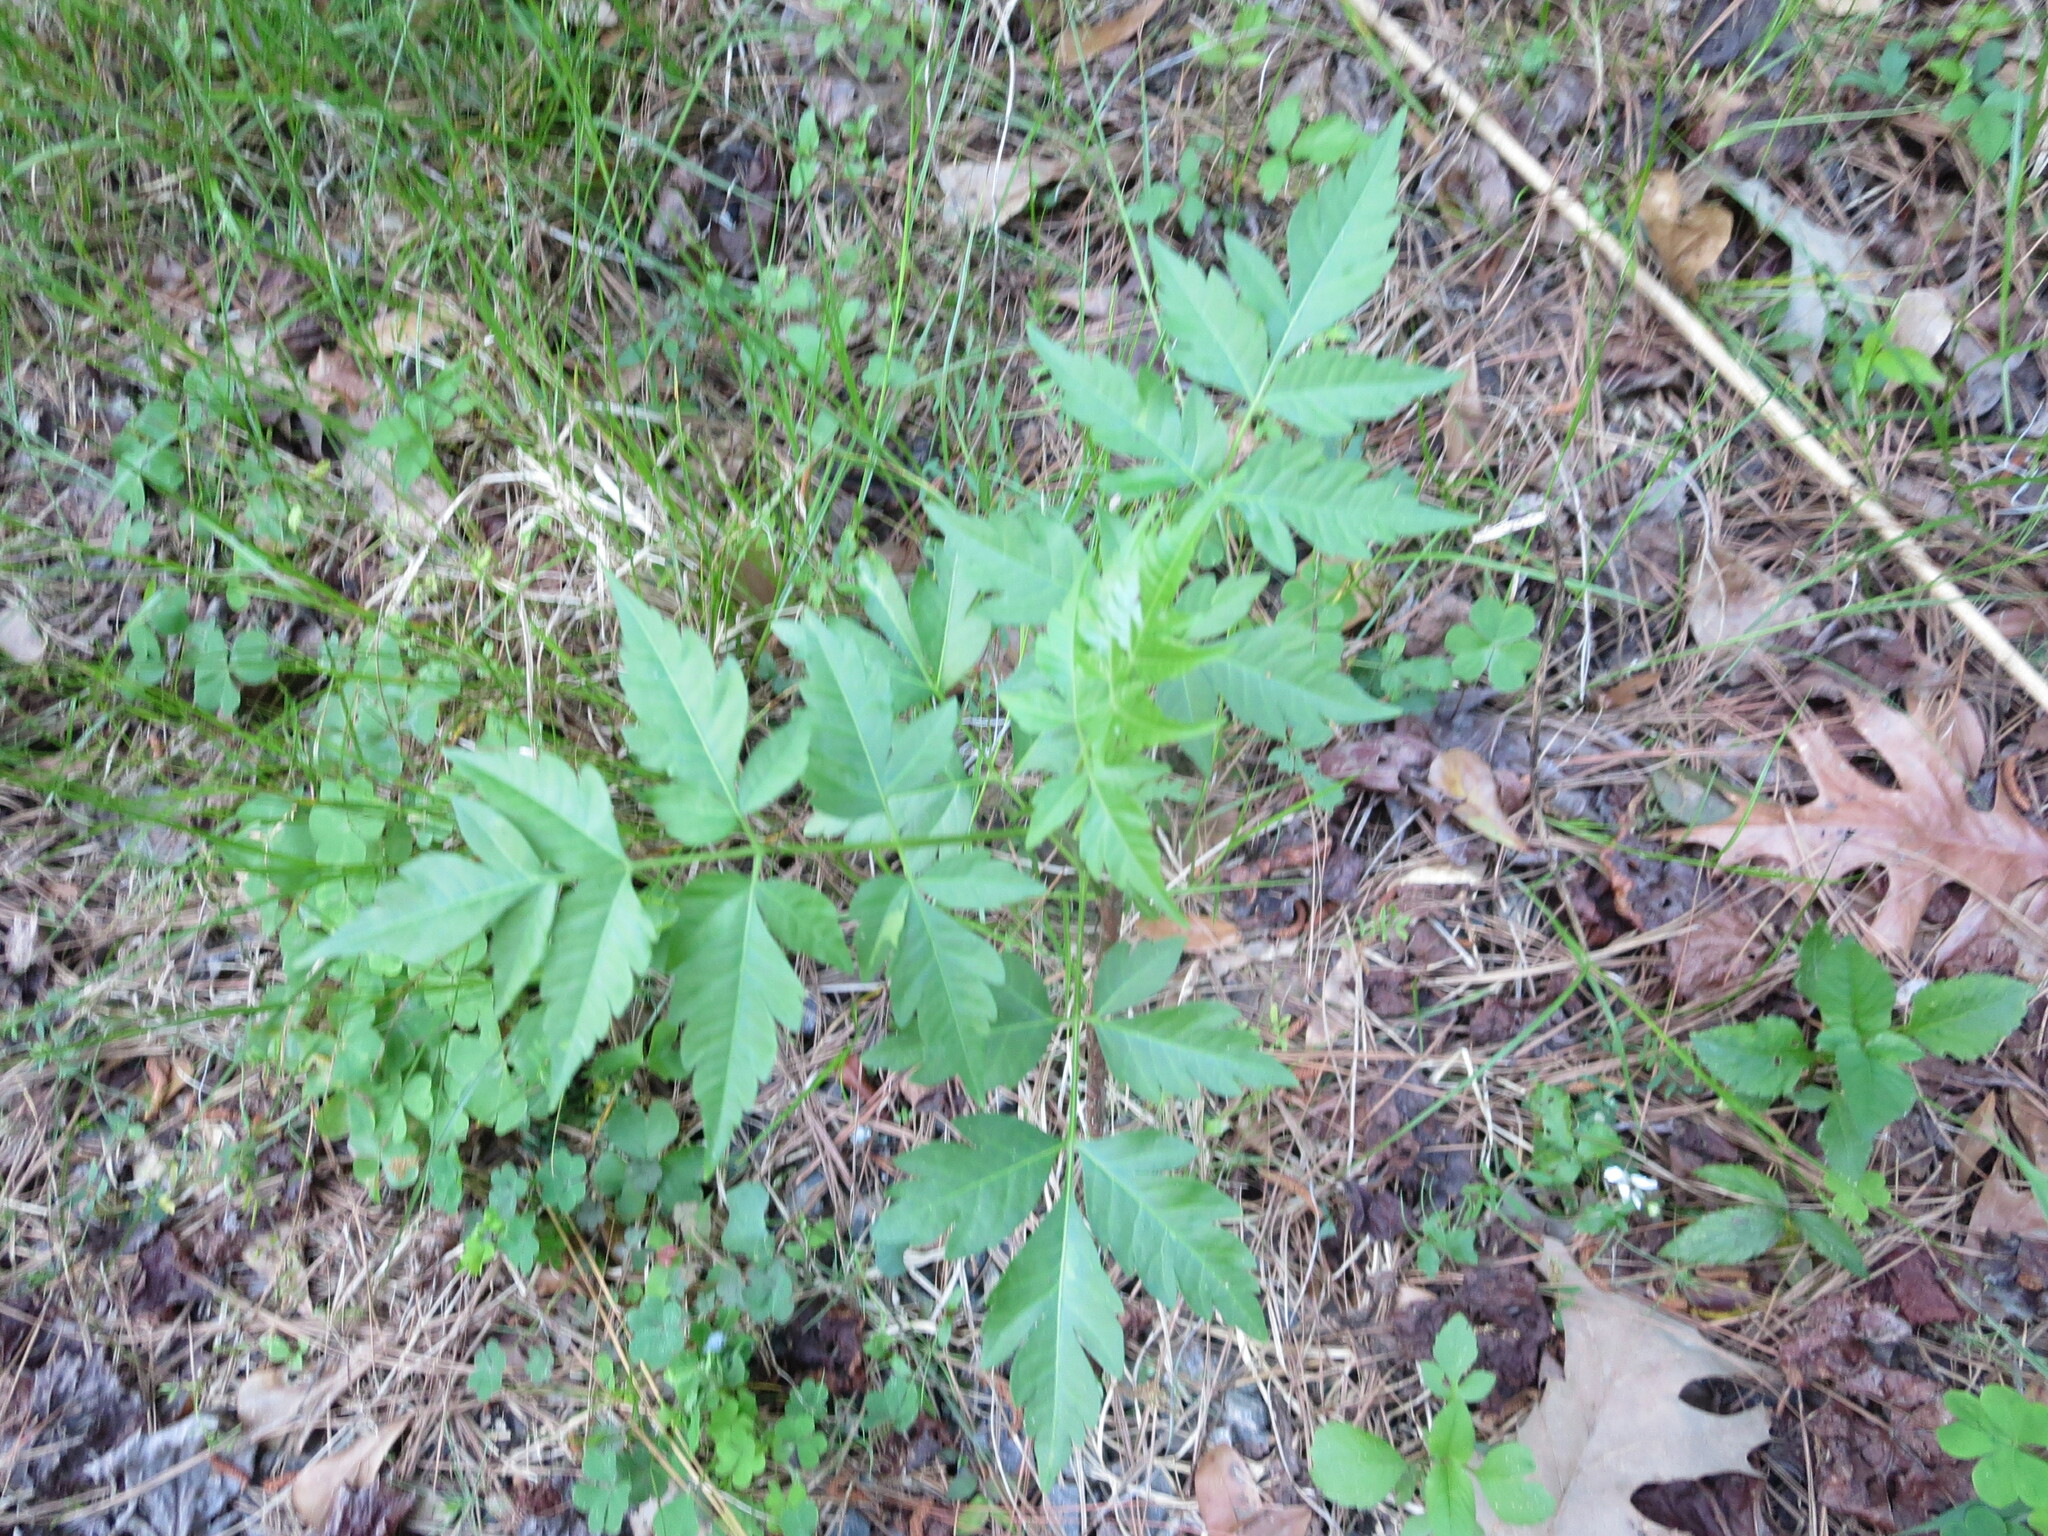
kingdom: Plantae
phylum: Tracheophyta
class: Magnoliopsida
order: Sapindales
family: Meliaceae
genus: Melia
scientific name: Melia azedarach
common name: Chinaberrytree
